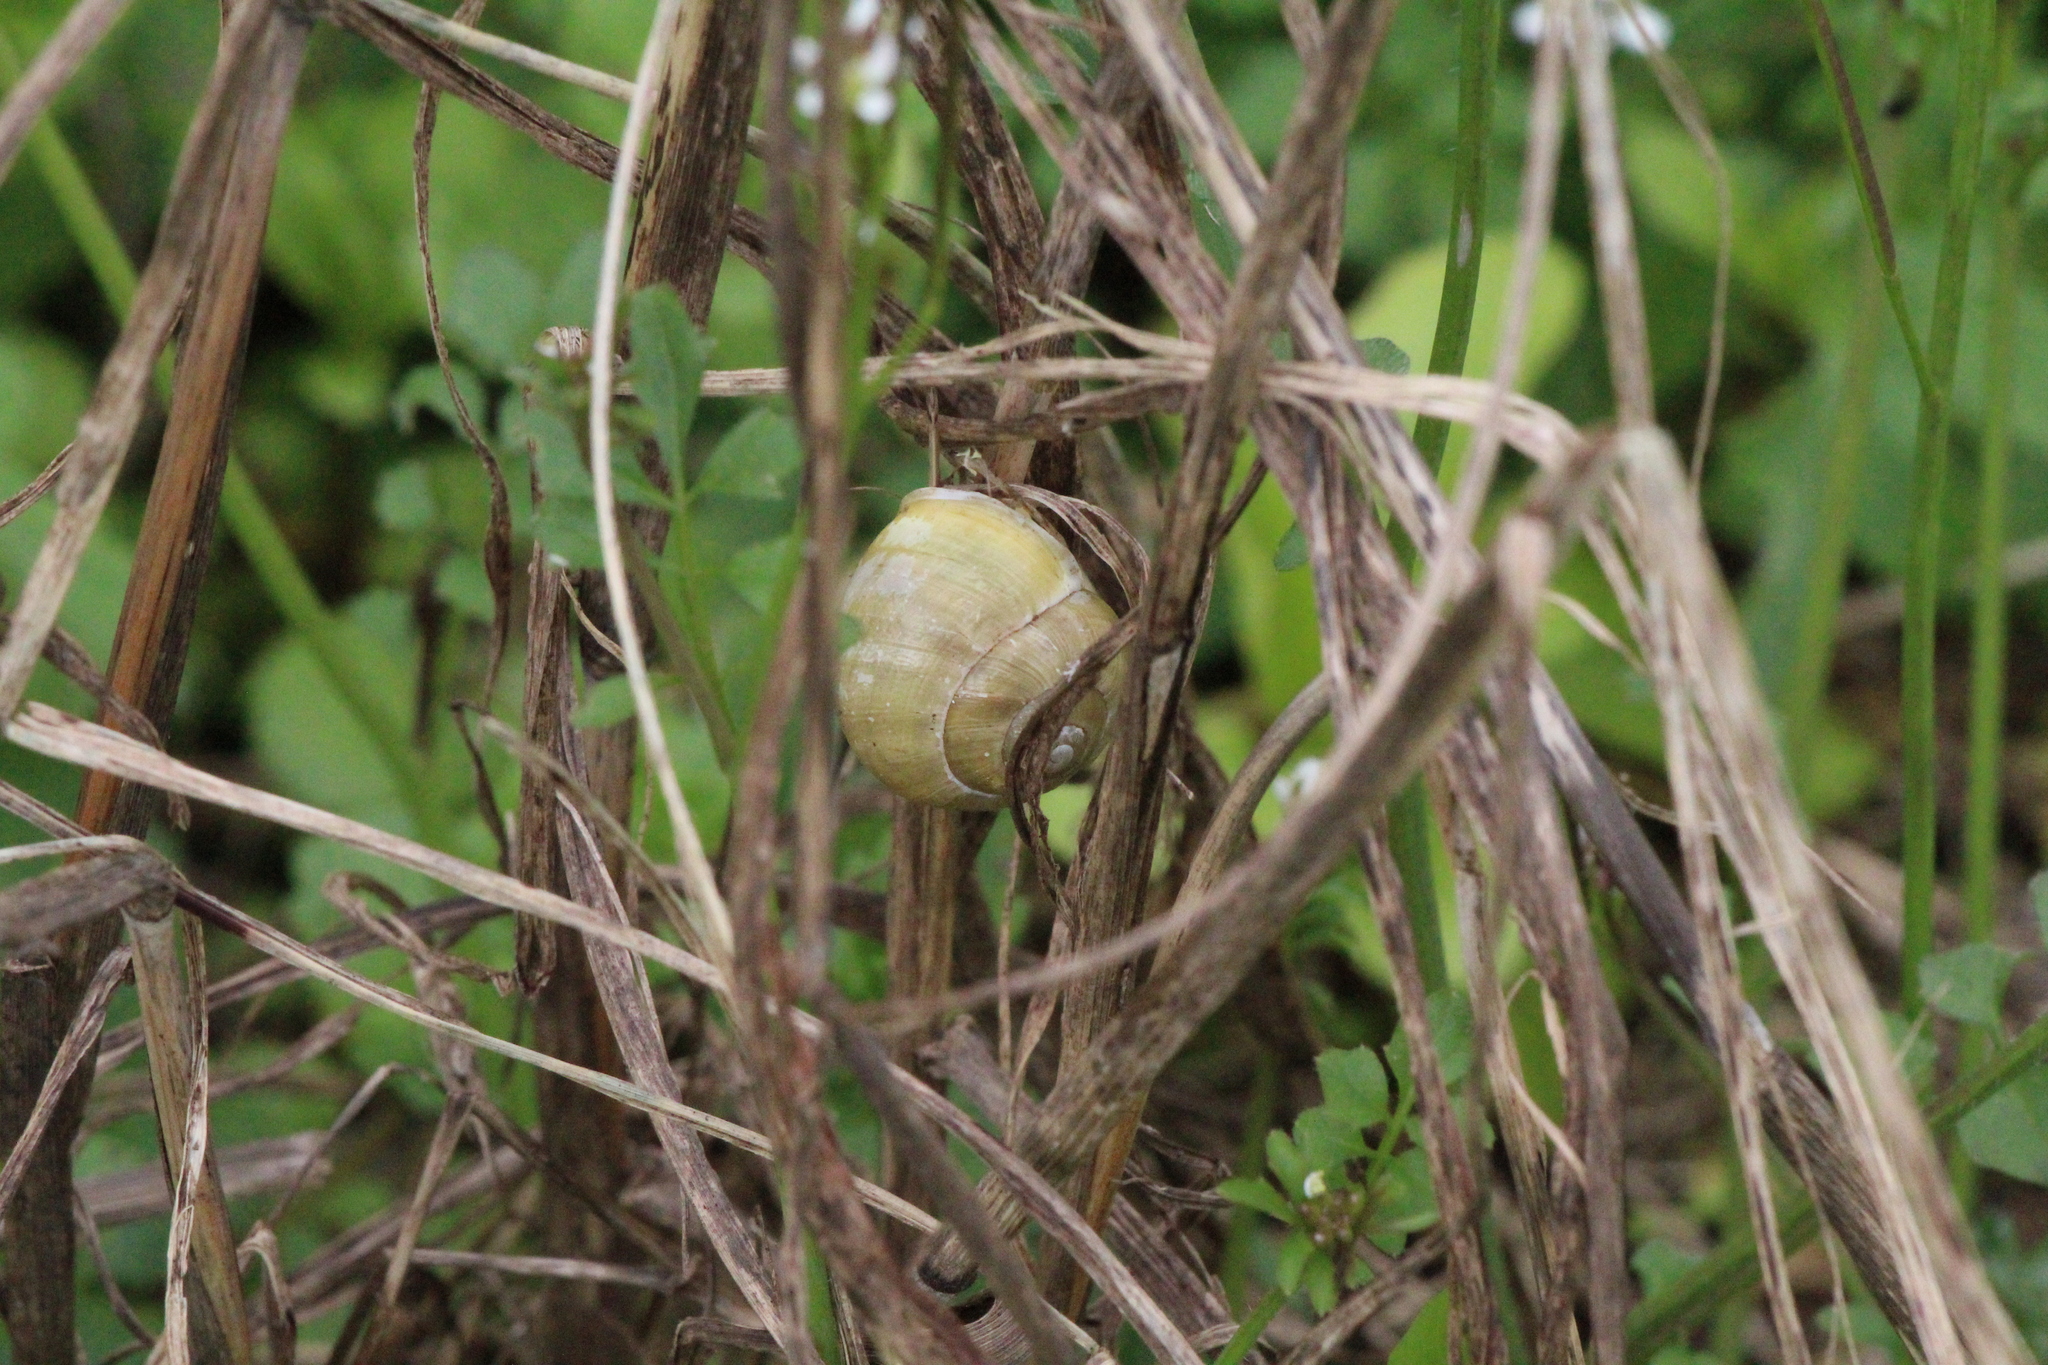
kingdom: Animalia
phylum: Mollusca
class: Gastropoda
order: Stylommatophora
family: Helicidae
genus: Cepaea
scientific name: Cepaea hortensis
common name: White-lip gardensnail
